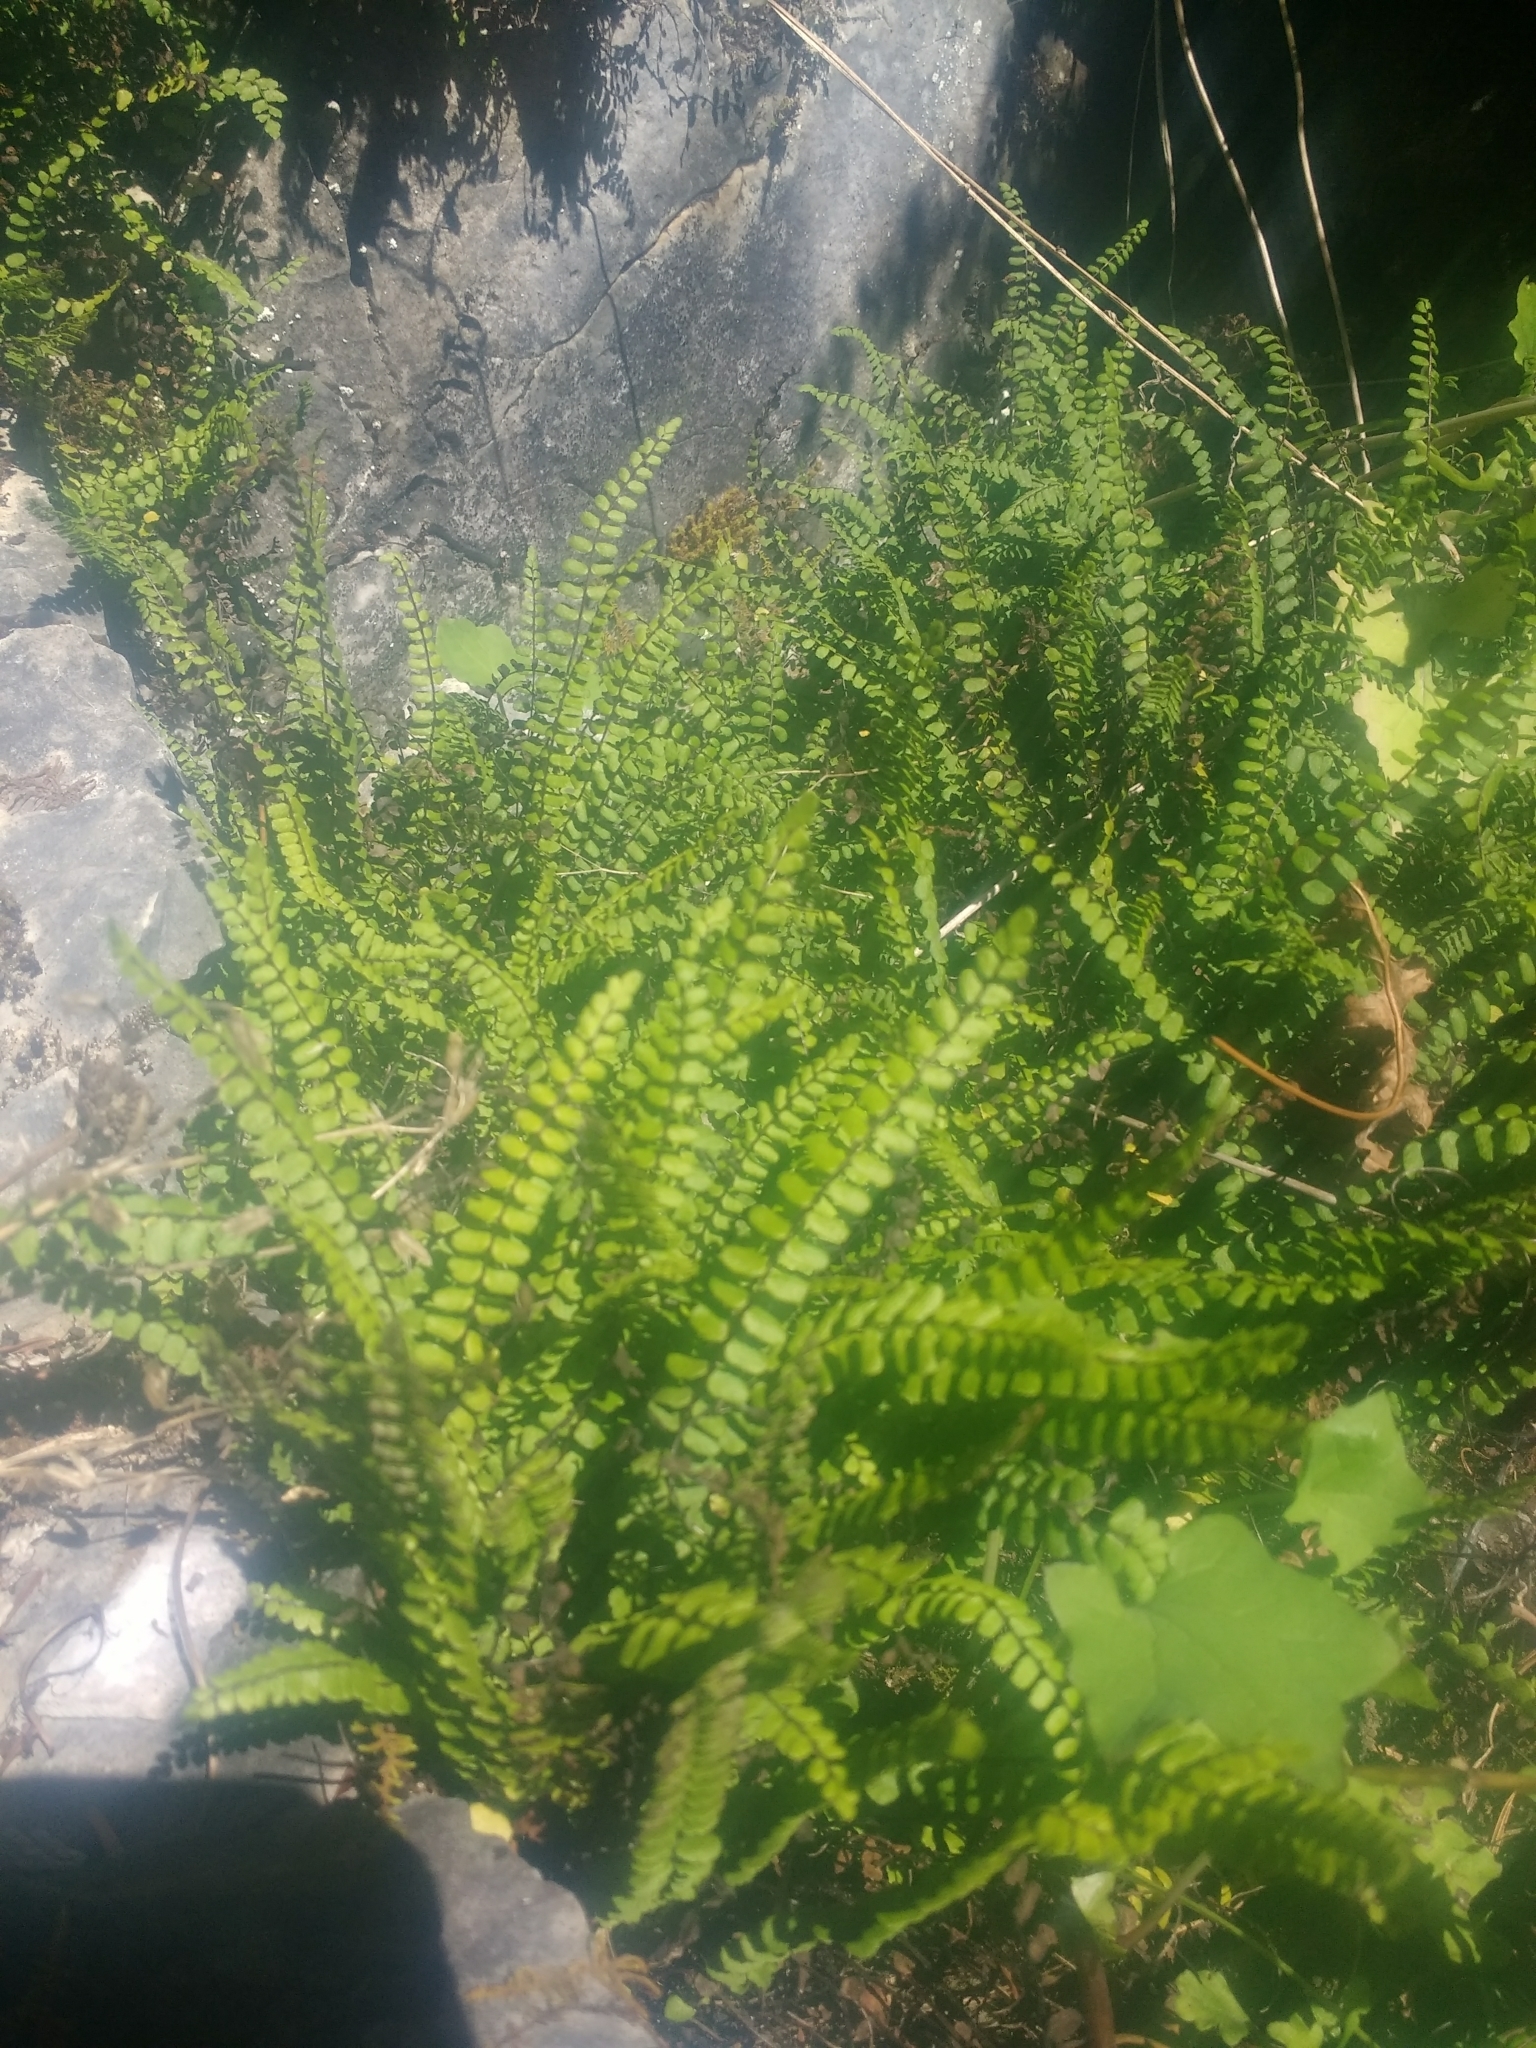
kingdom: Plantae
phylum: Tracheophyta
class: Polypodiopsida
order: Polypodiales
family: Aspleniaceae
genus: Asplenium
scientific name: Asplenium trichomanes
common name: Maidenhair spleenwort
